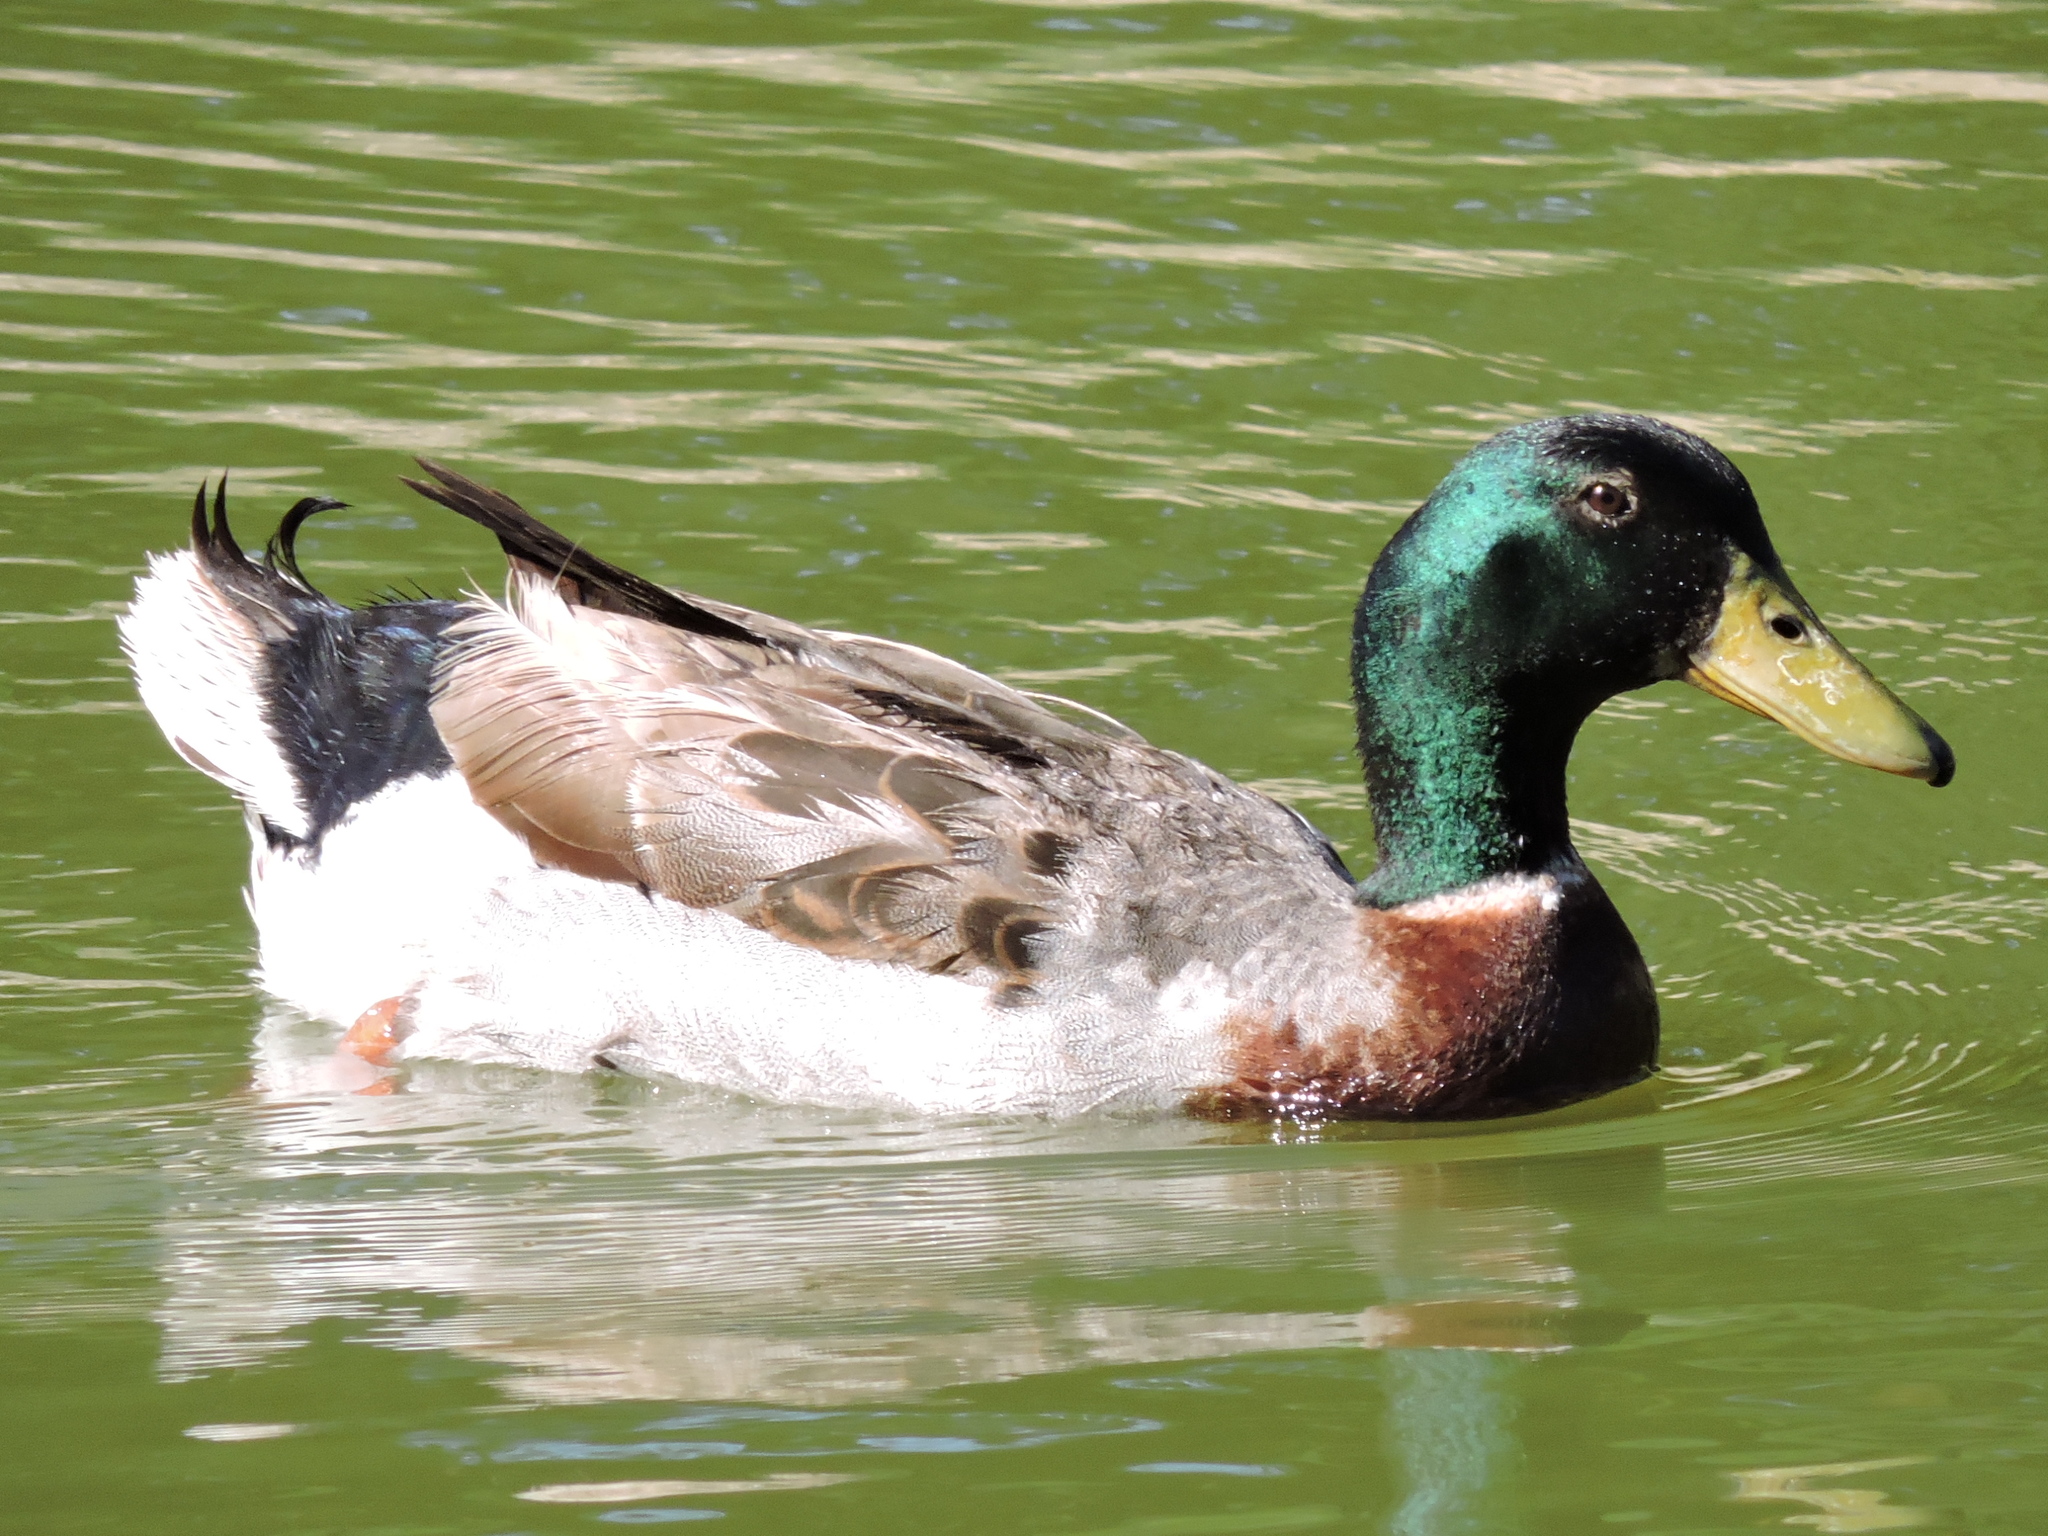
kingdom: Animalia
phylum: Chordata
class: Aves
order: Anseriformes
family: Anatidae
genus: Anas
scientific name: Anas platyrhynchos
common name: Mallard
